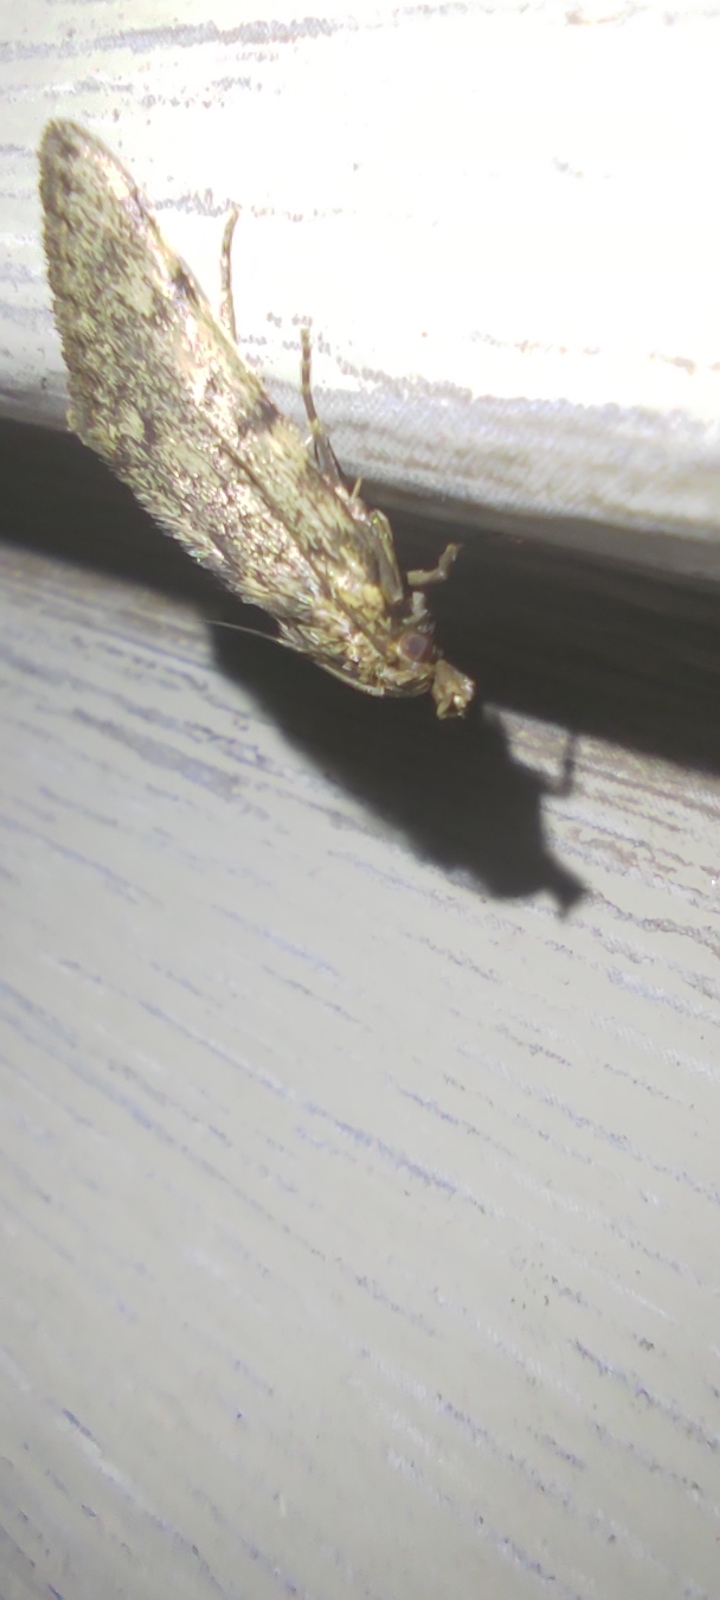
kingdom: Animalia
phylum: Arthropoda
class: Insecta
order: Lepidoptera
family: Pyralidae
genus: Aglossa
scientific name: Aglossa pinguinalis
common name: Large tabby
